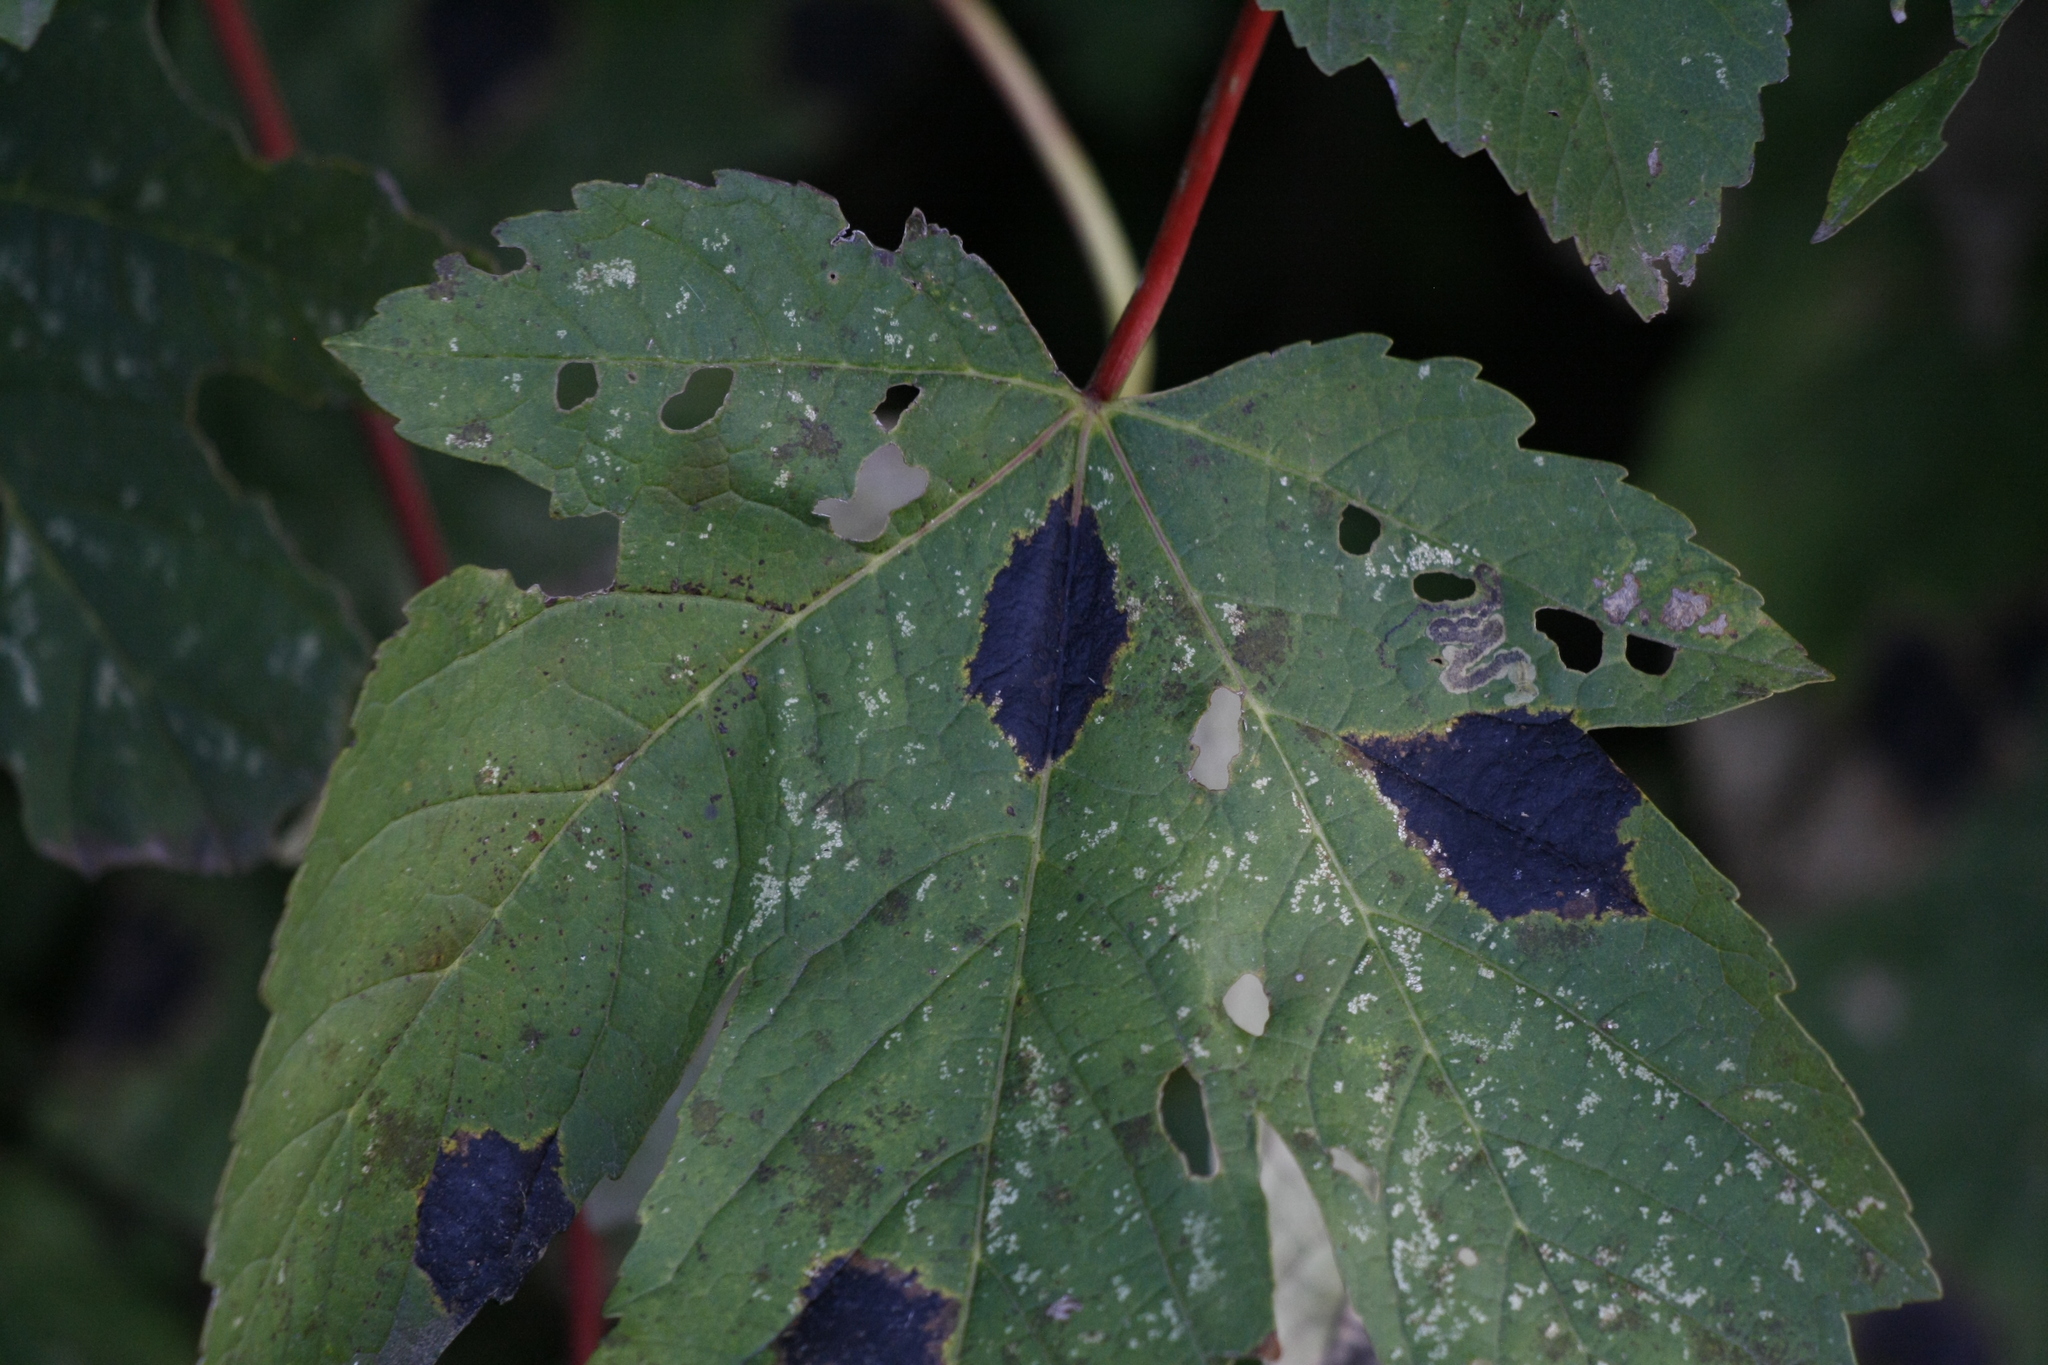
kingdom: Fungi
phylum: Ascomycota
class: Leotiomycetes
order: Rhytismatales
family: Rhytismataceae
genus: Rhytisma
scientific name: Rhytisma acerinum
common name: European tar spot
